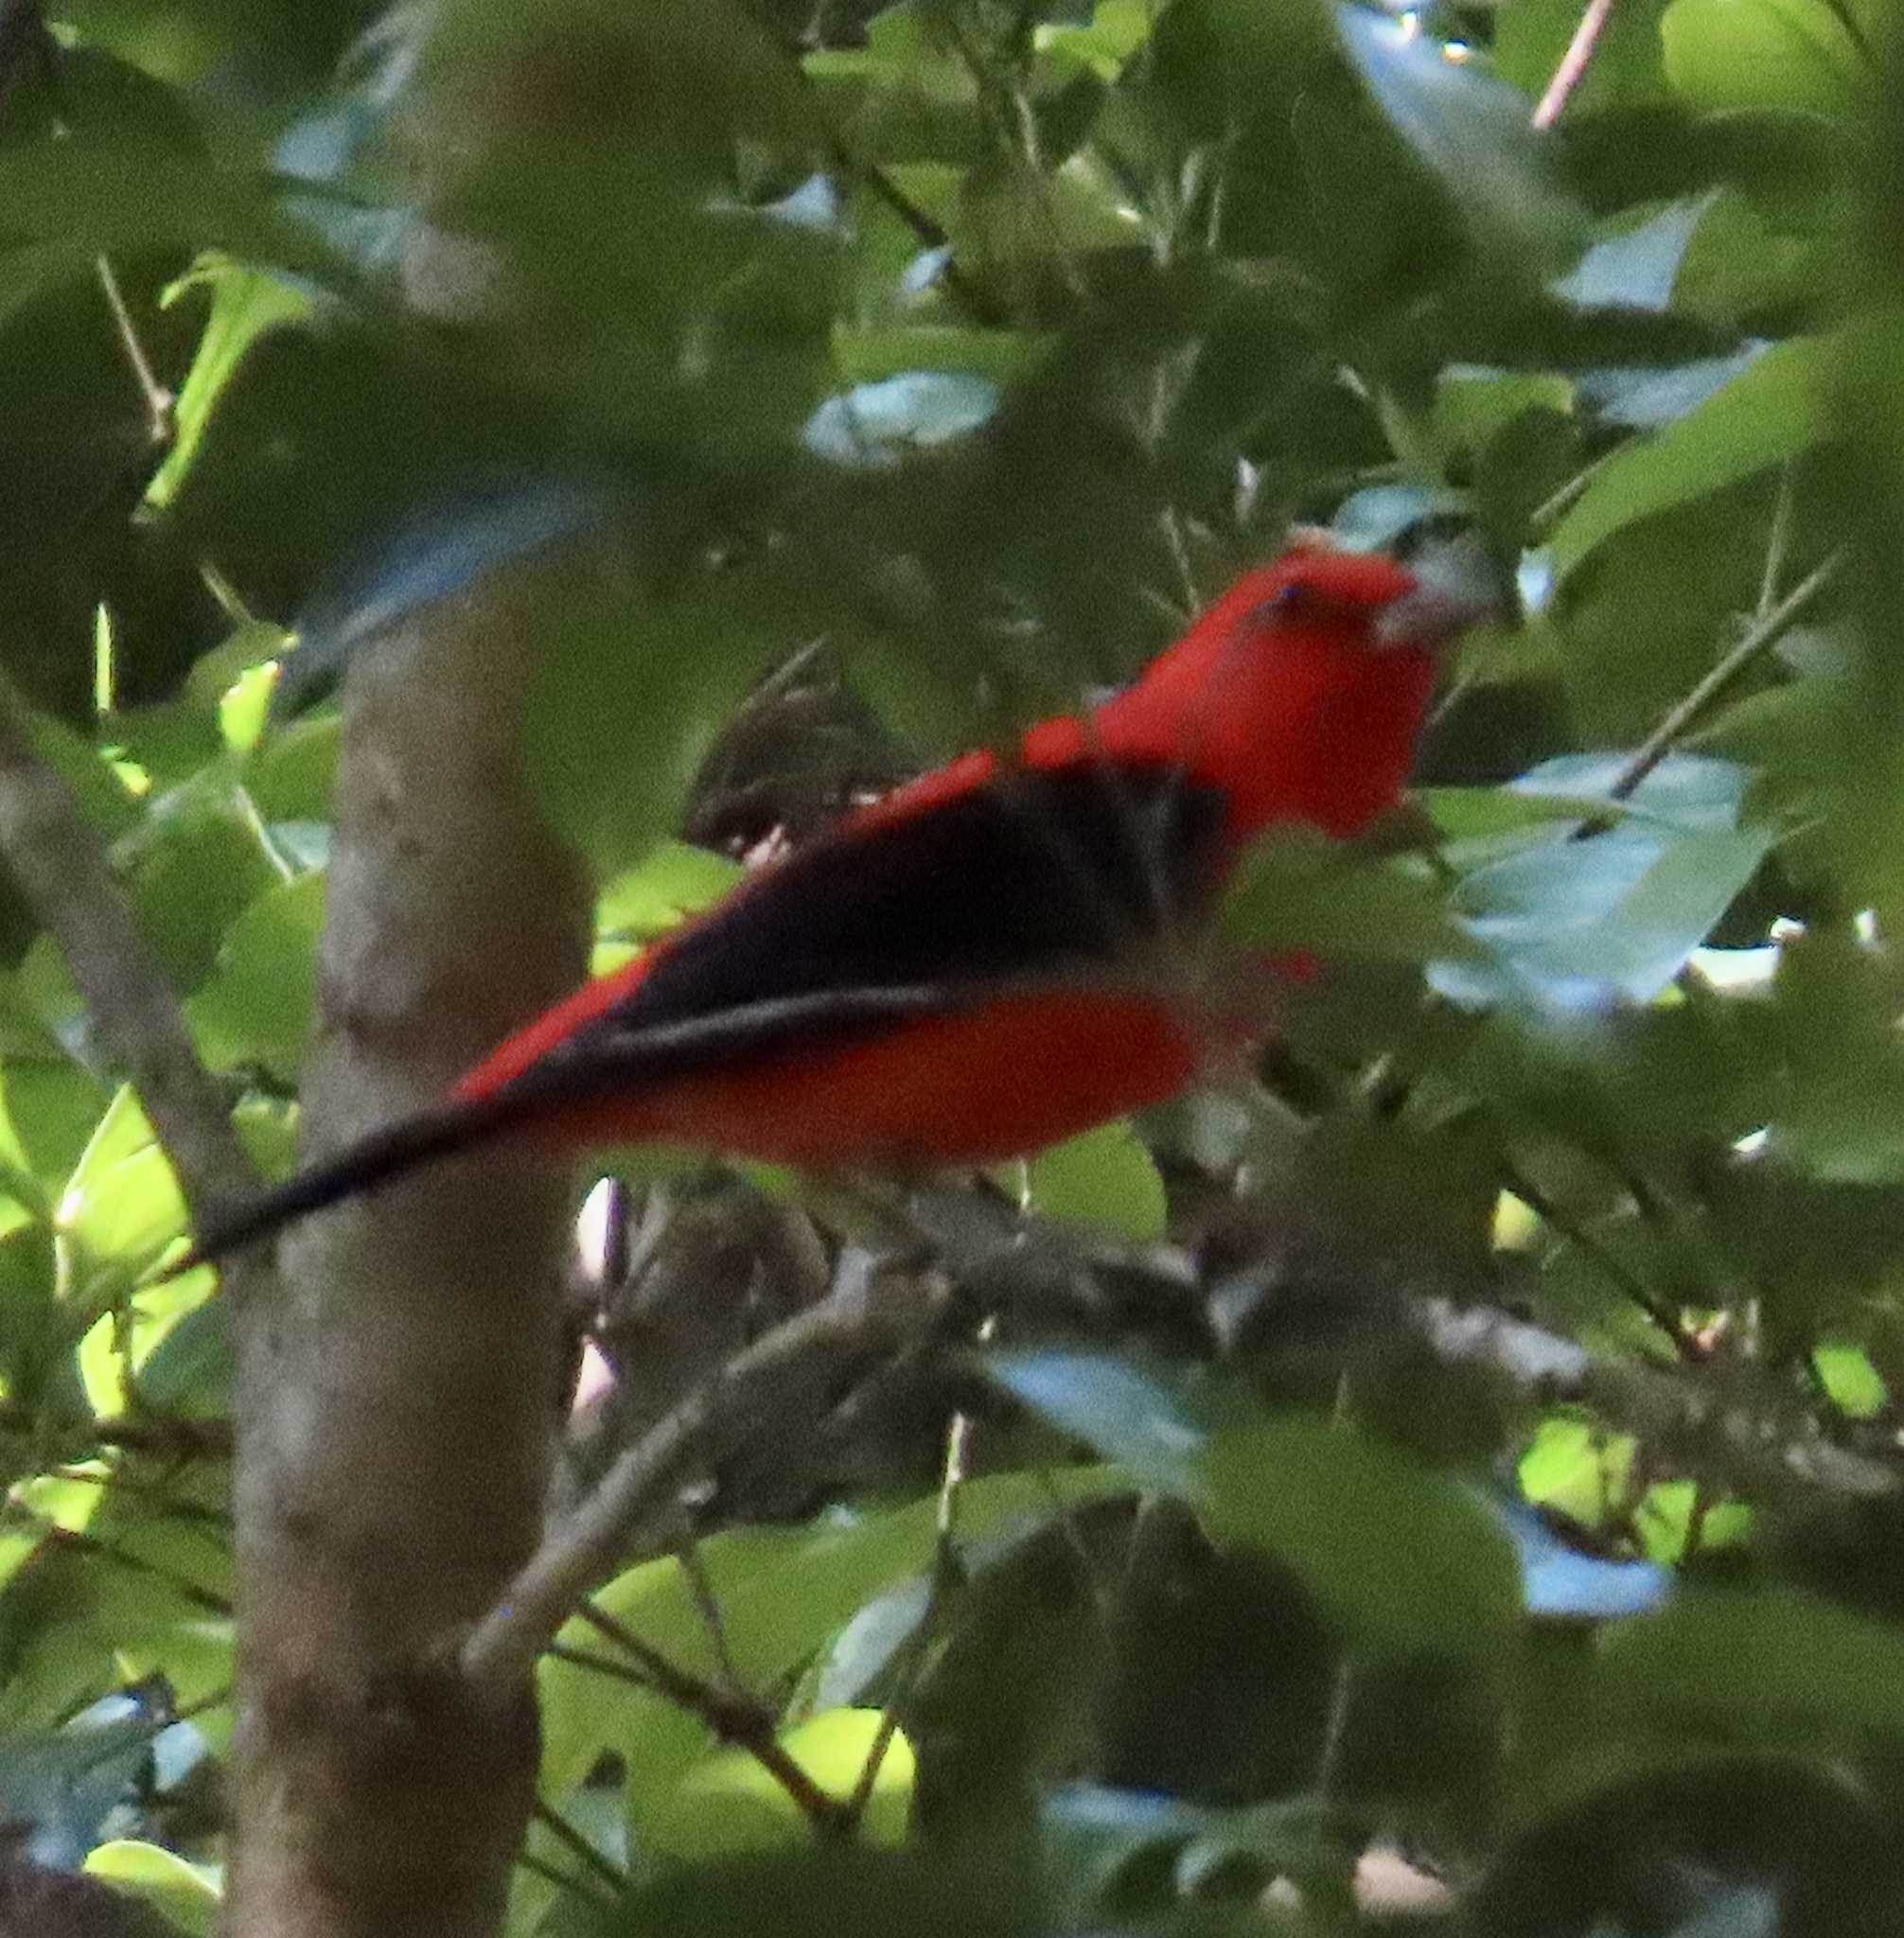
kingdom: Animalia
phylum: Chordata
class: Aves
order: Passeriformes
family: Cardinalidae
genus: Piranga
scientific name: Piranga olivacea
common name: Scarlet tanager
